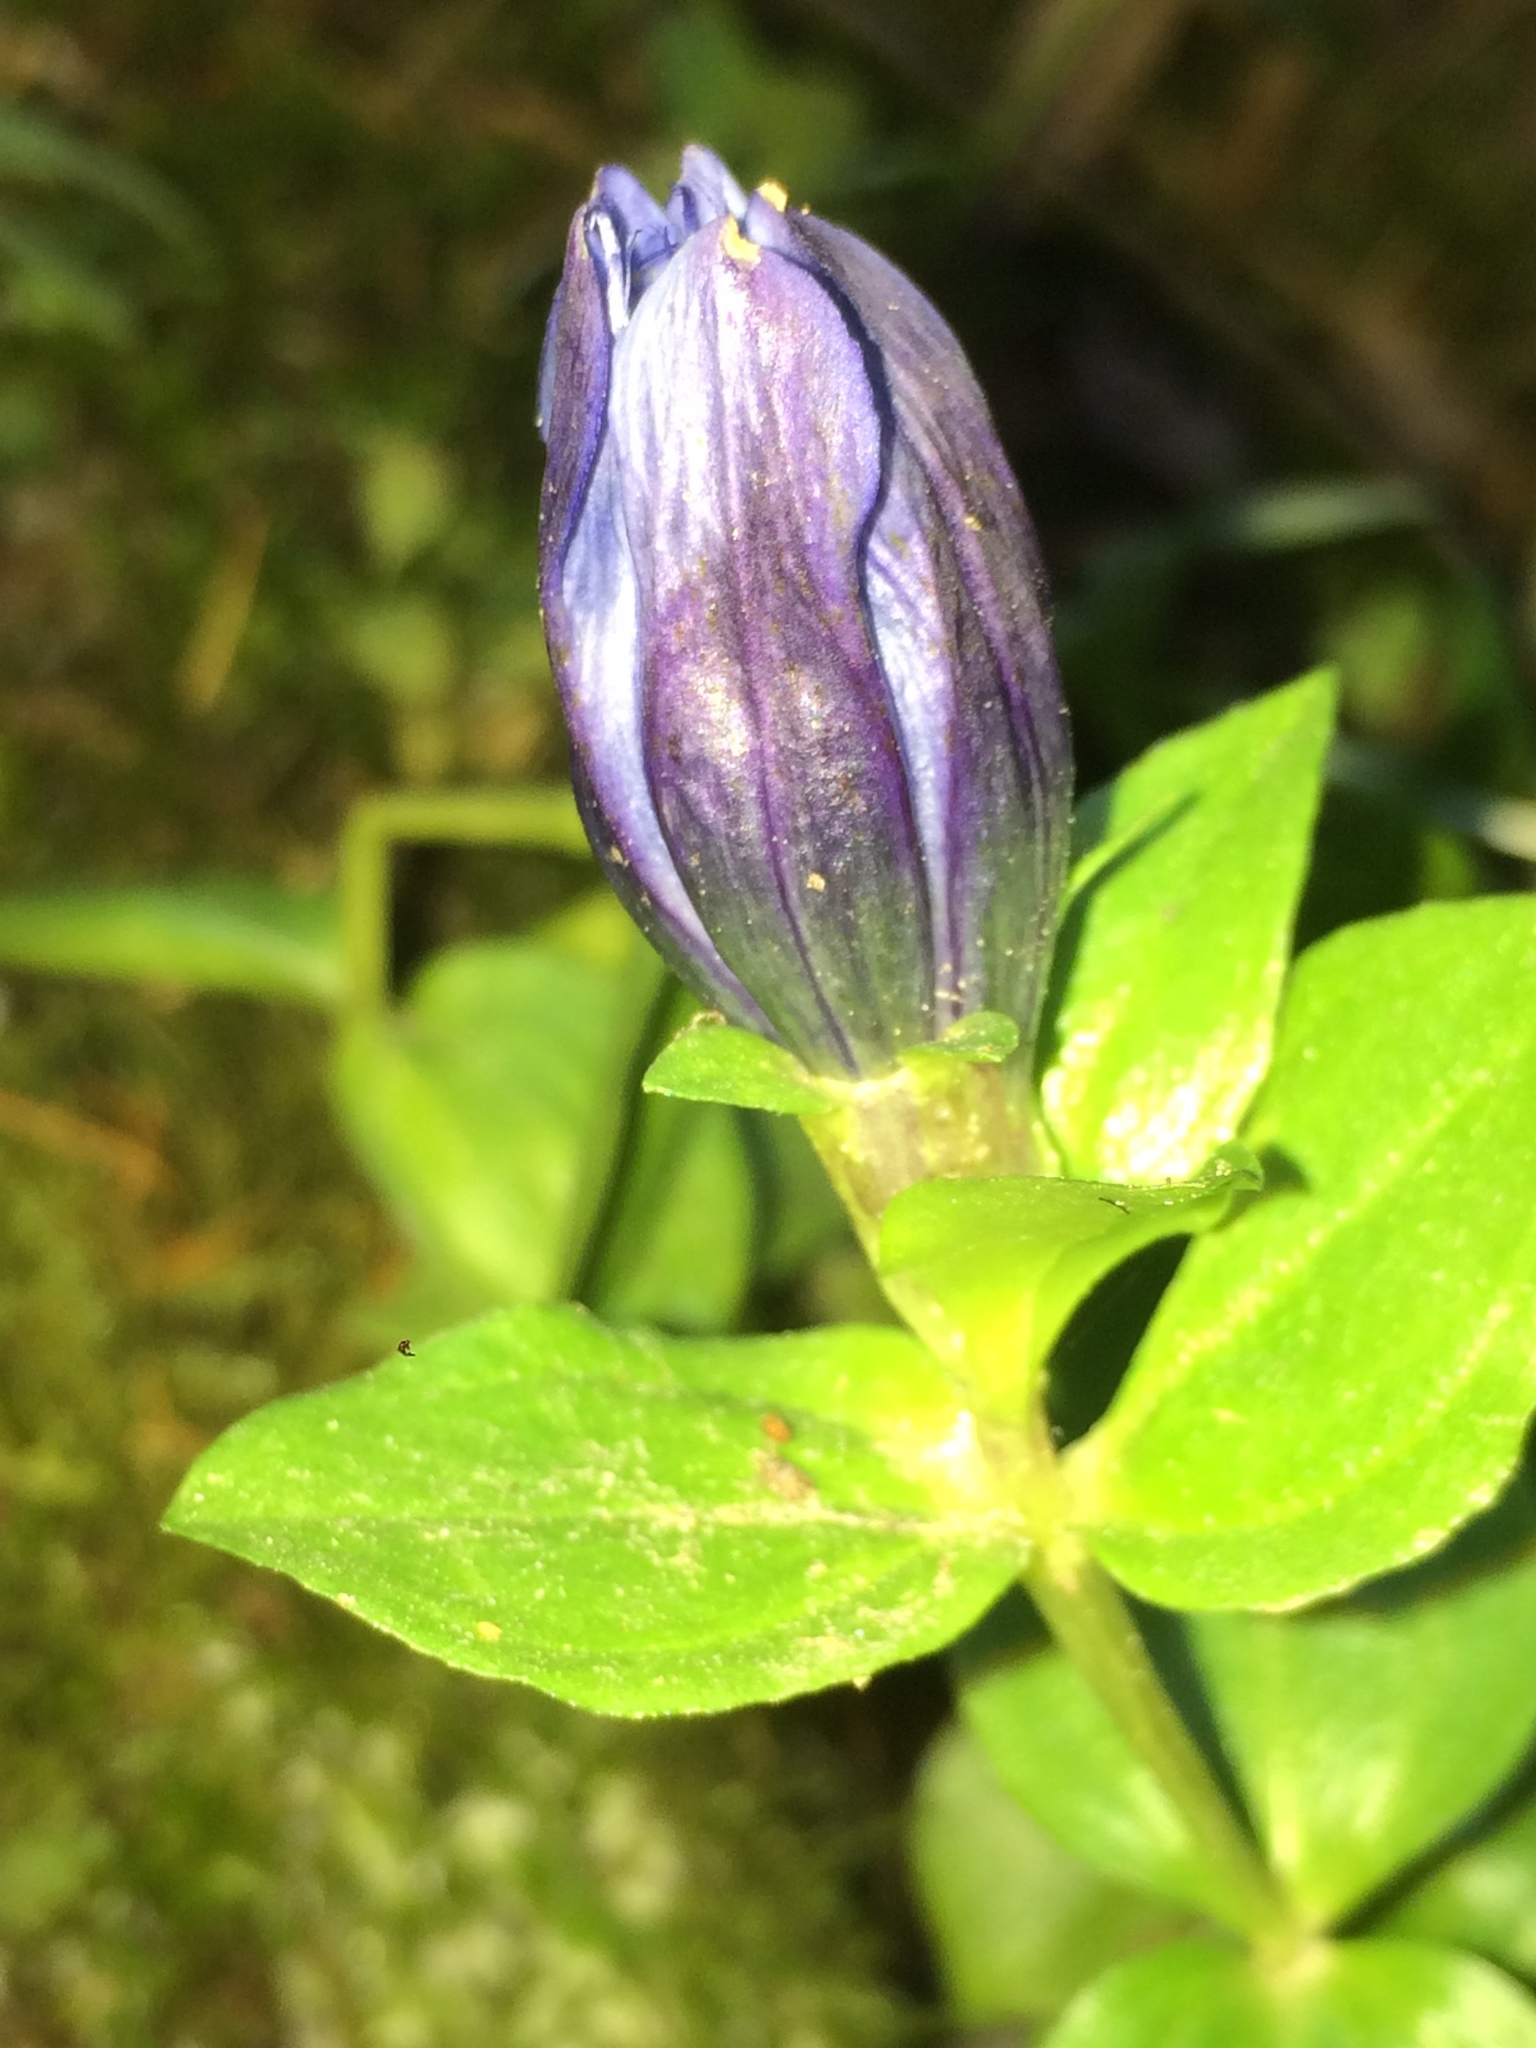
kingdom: Plantae
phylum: Tracheophyta
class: Magnoliopsida
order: Gentianales
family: Gentianaceae
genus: Gentiana
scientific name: Gentiana calycosa
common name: Rainier pleated gentian
